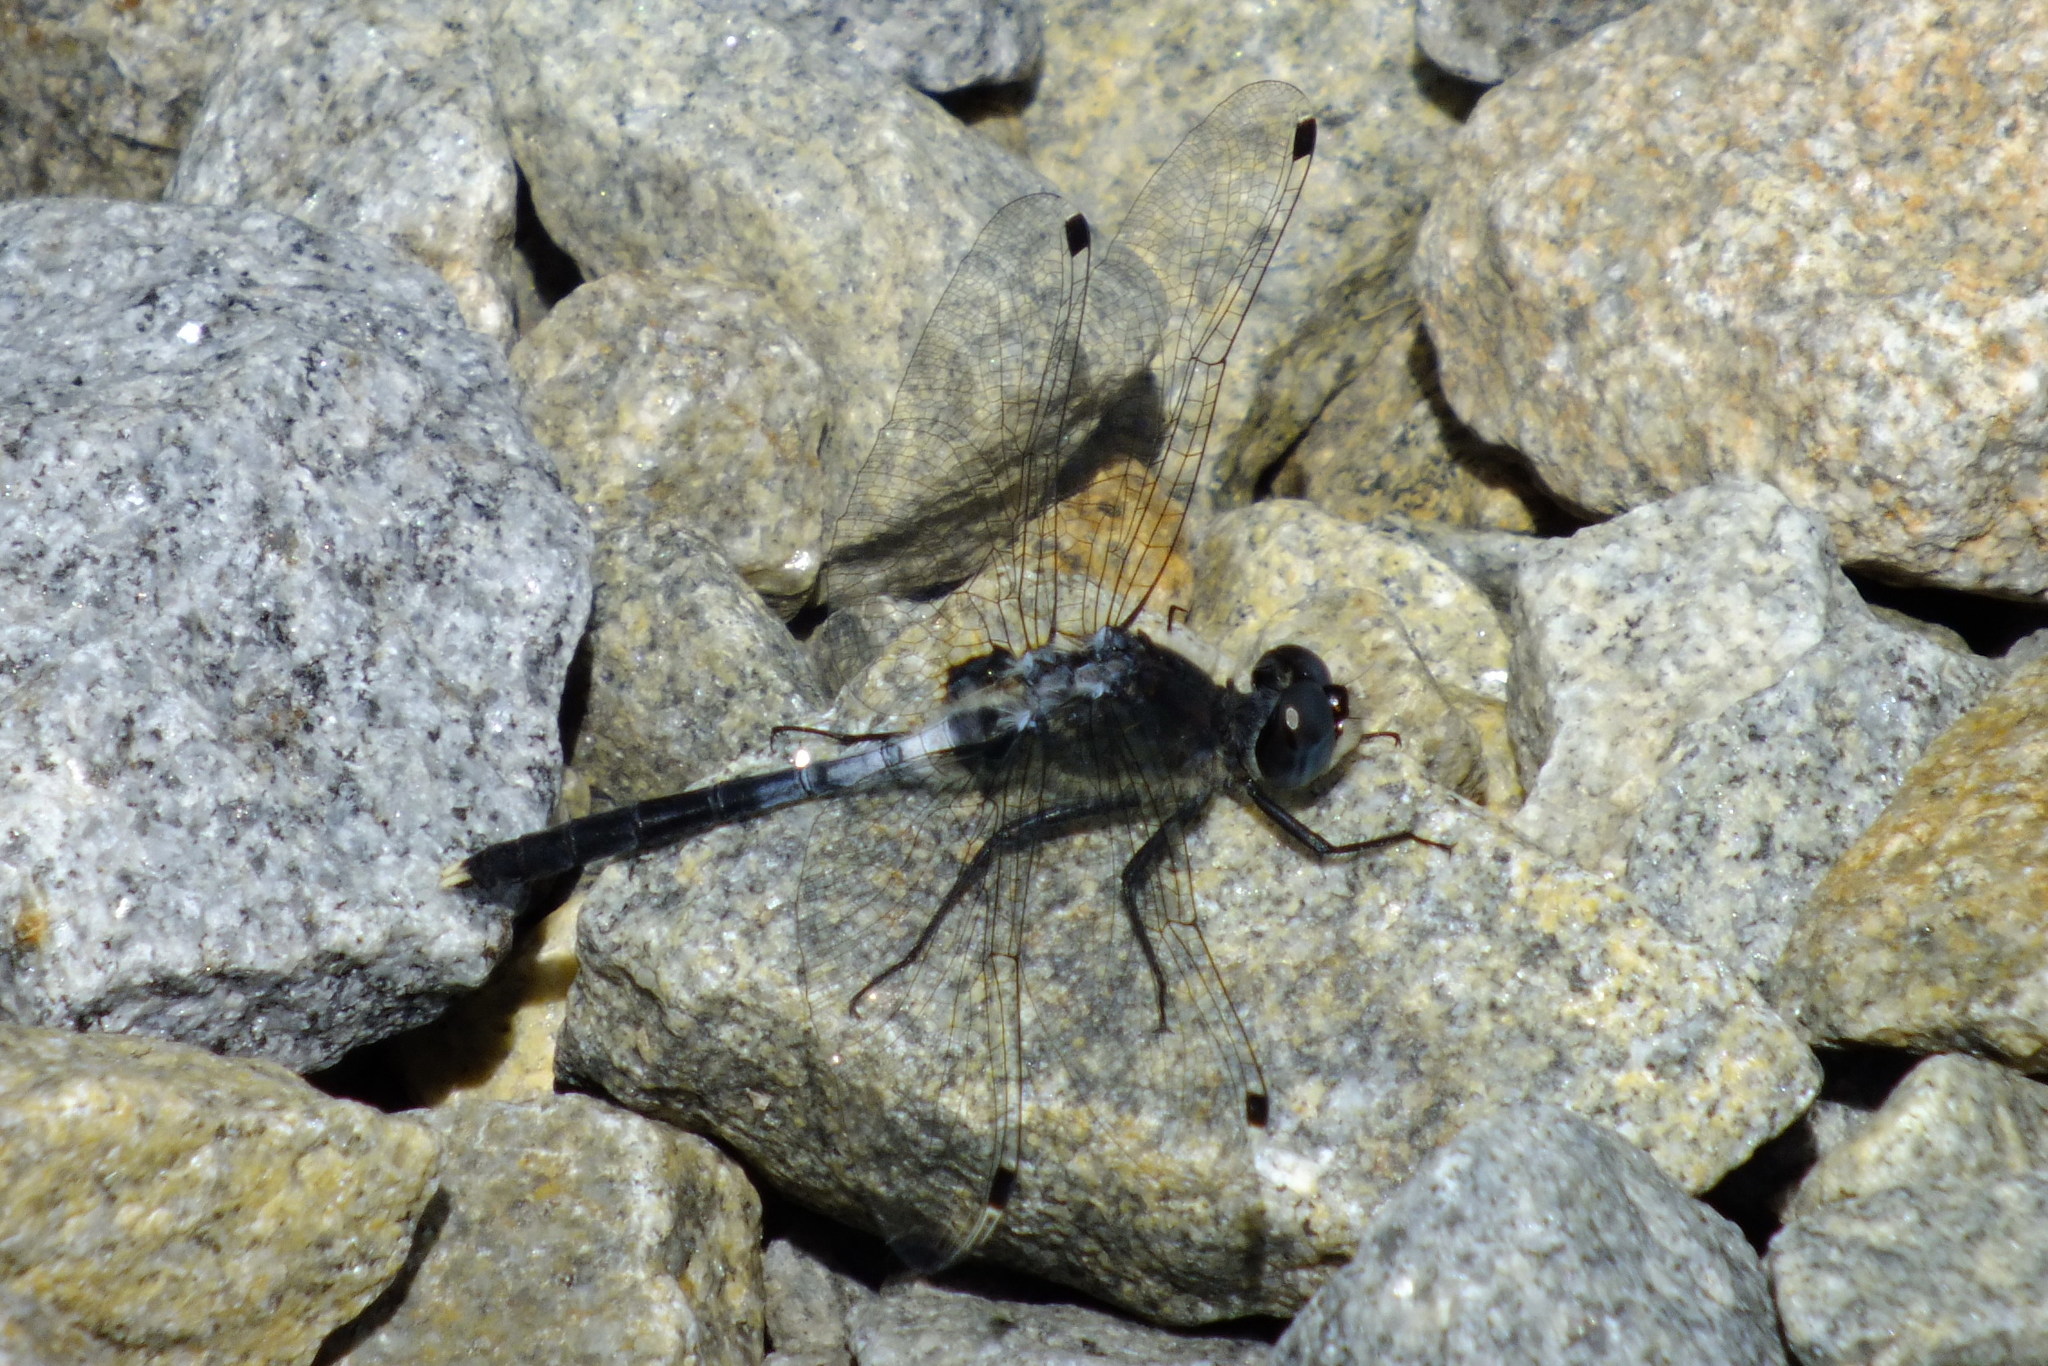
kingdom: Animalia
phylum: Arthropoda
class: Insecta
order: Odonata
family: Libellulidae
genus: Leucorrhinia
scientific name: Leucorrhinia albifrons
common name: Dark whiteface
